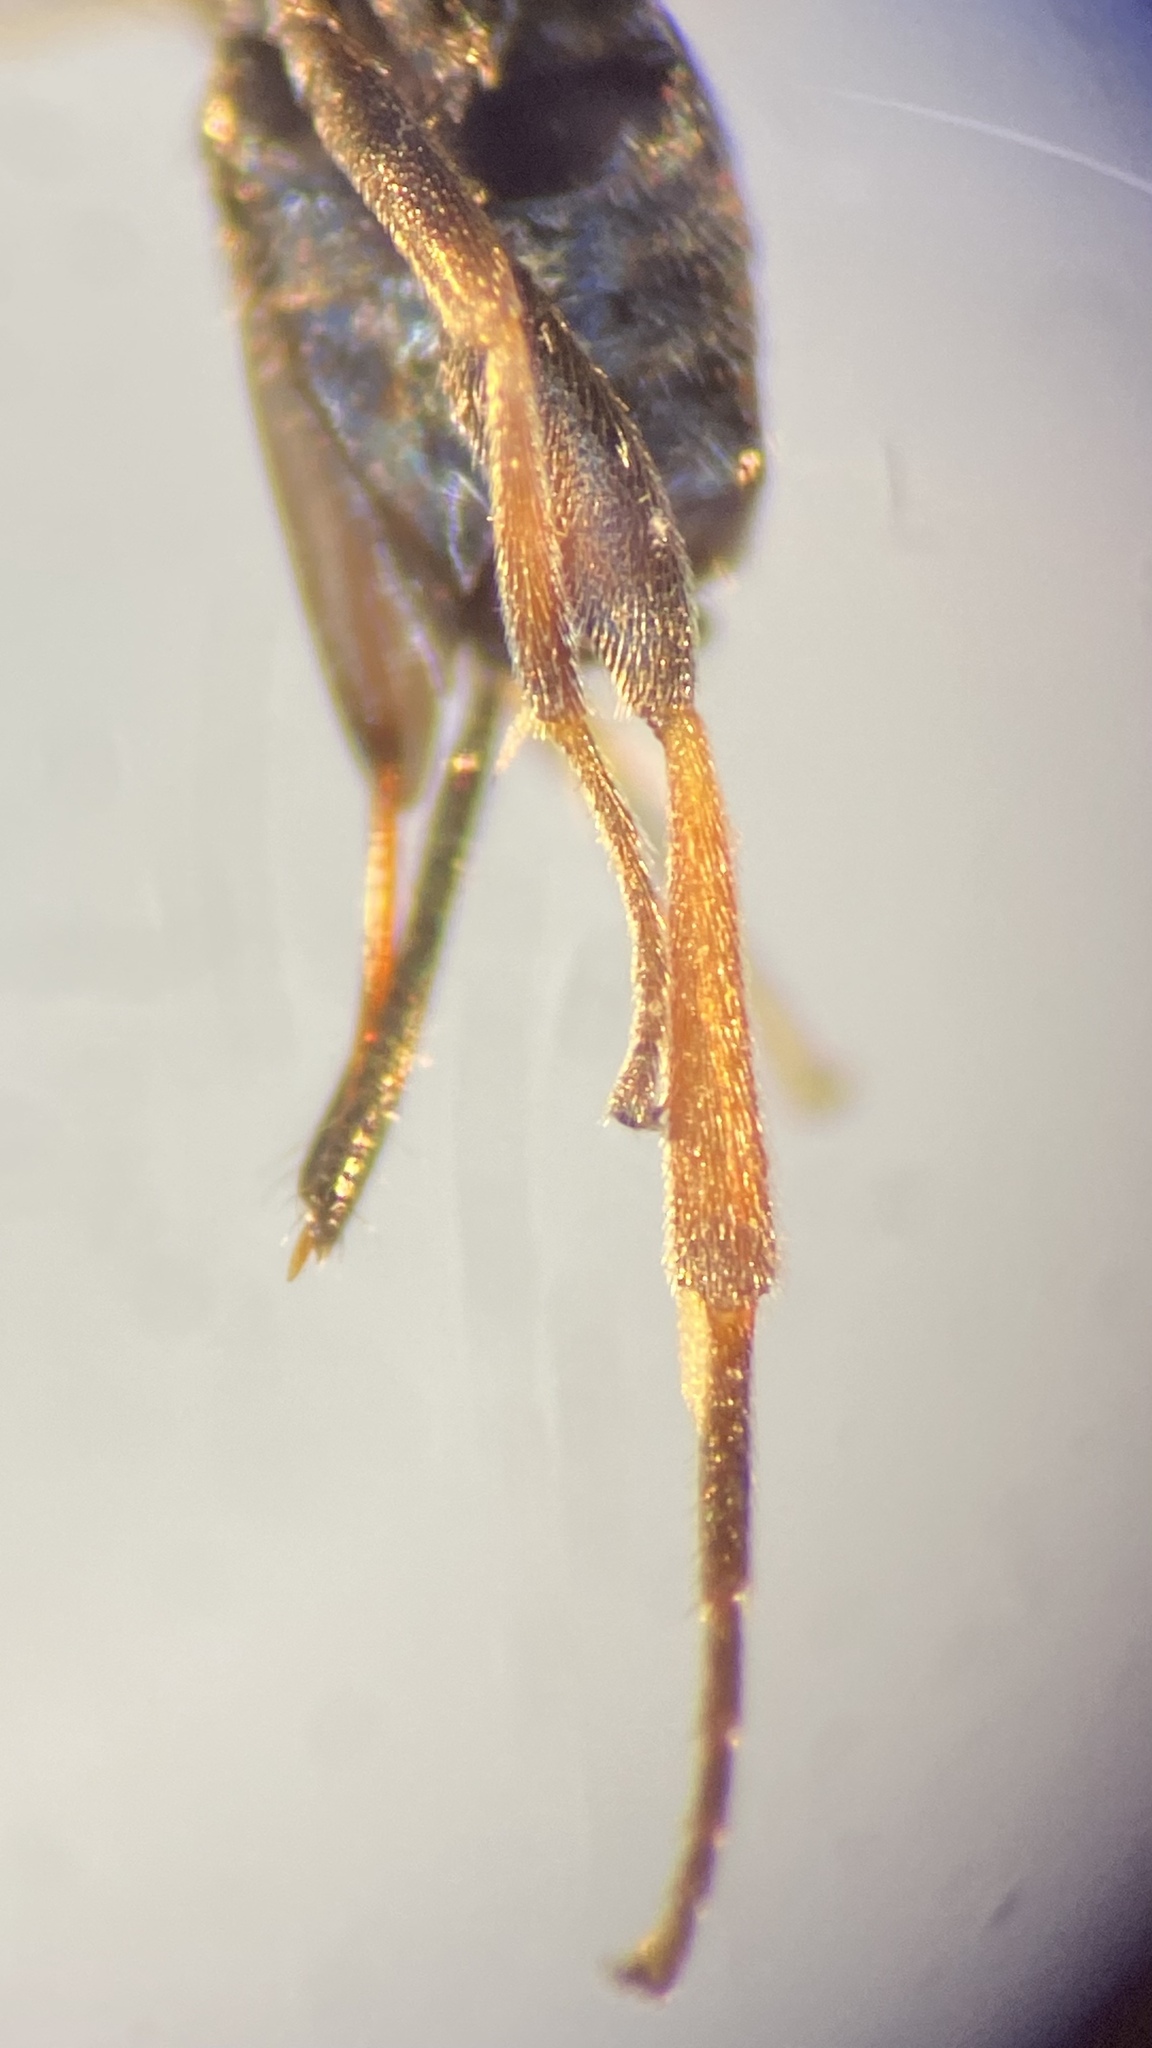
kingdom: Animalia
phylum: Arthropoda
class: Insecta
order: Hymenoptera
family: Braconidae
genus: Apanteles
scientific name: Apanteles
